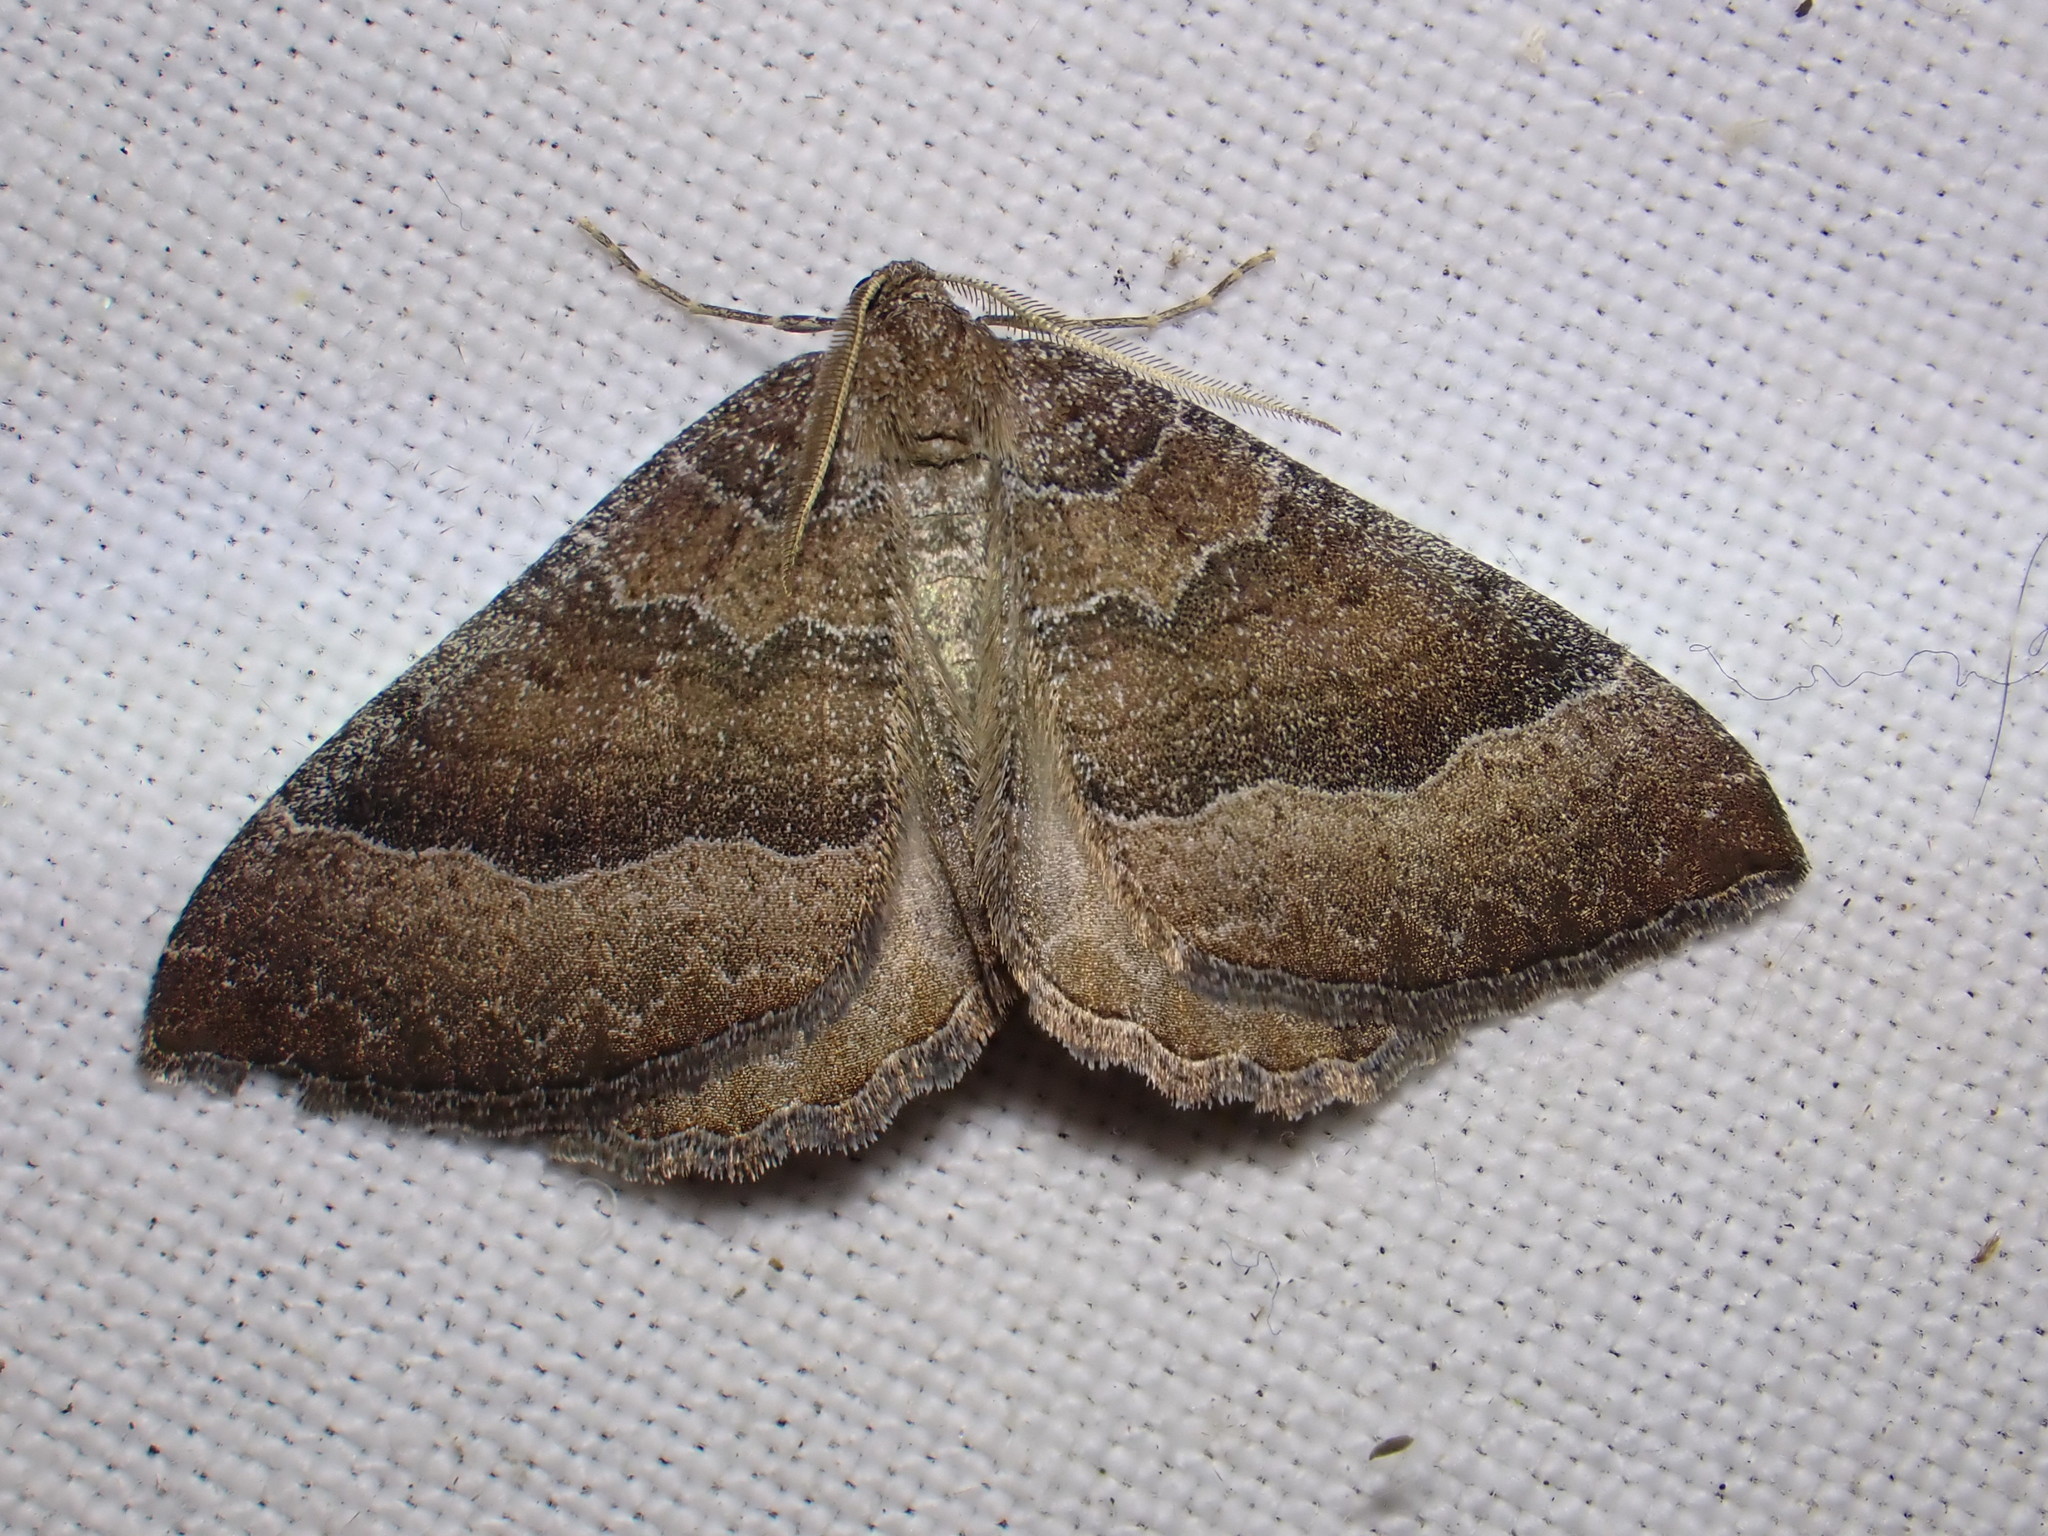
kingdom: Animalia
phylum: Arthropoda
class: Insecta
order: Lepidoptera
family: Geometridae
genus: Larentia
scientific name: Larentia clavaria
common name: Mallow
